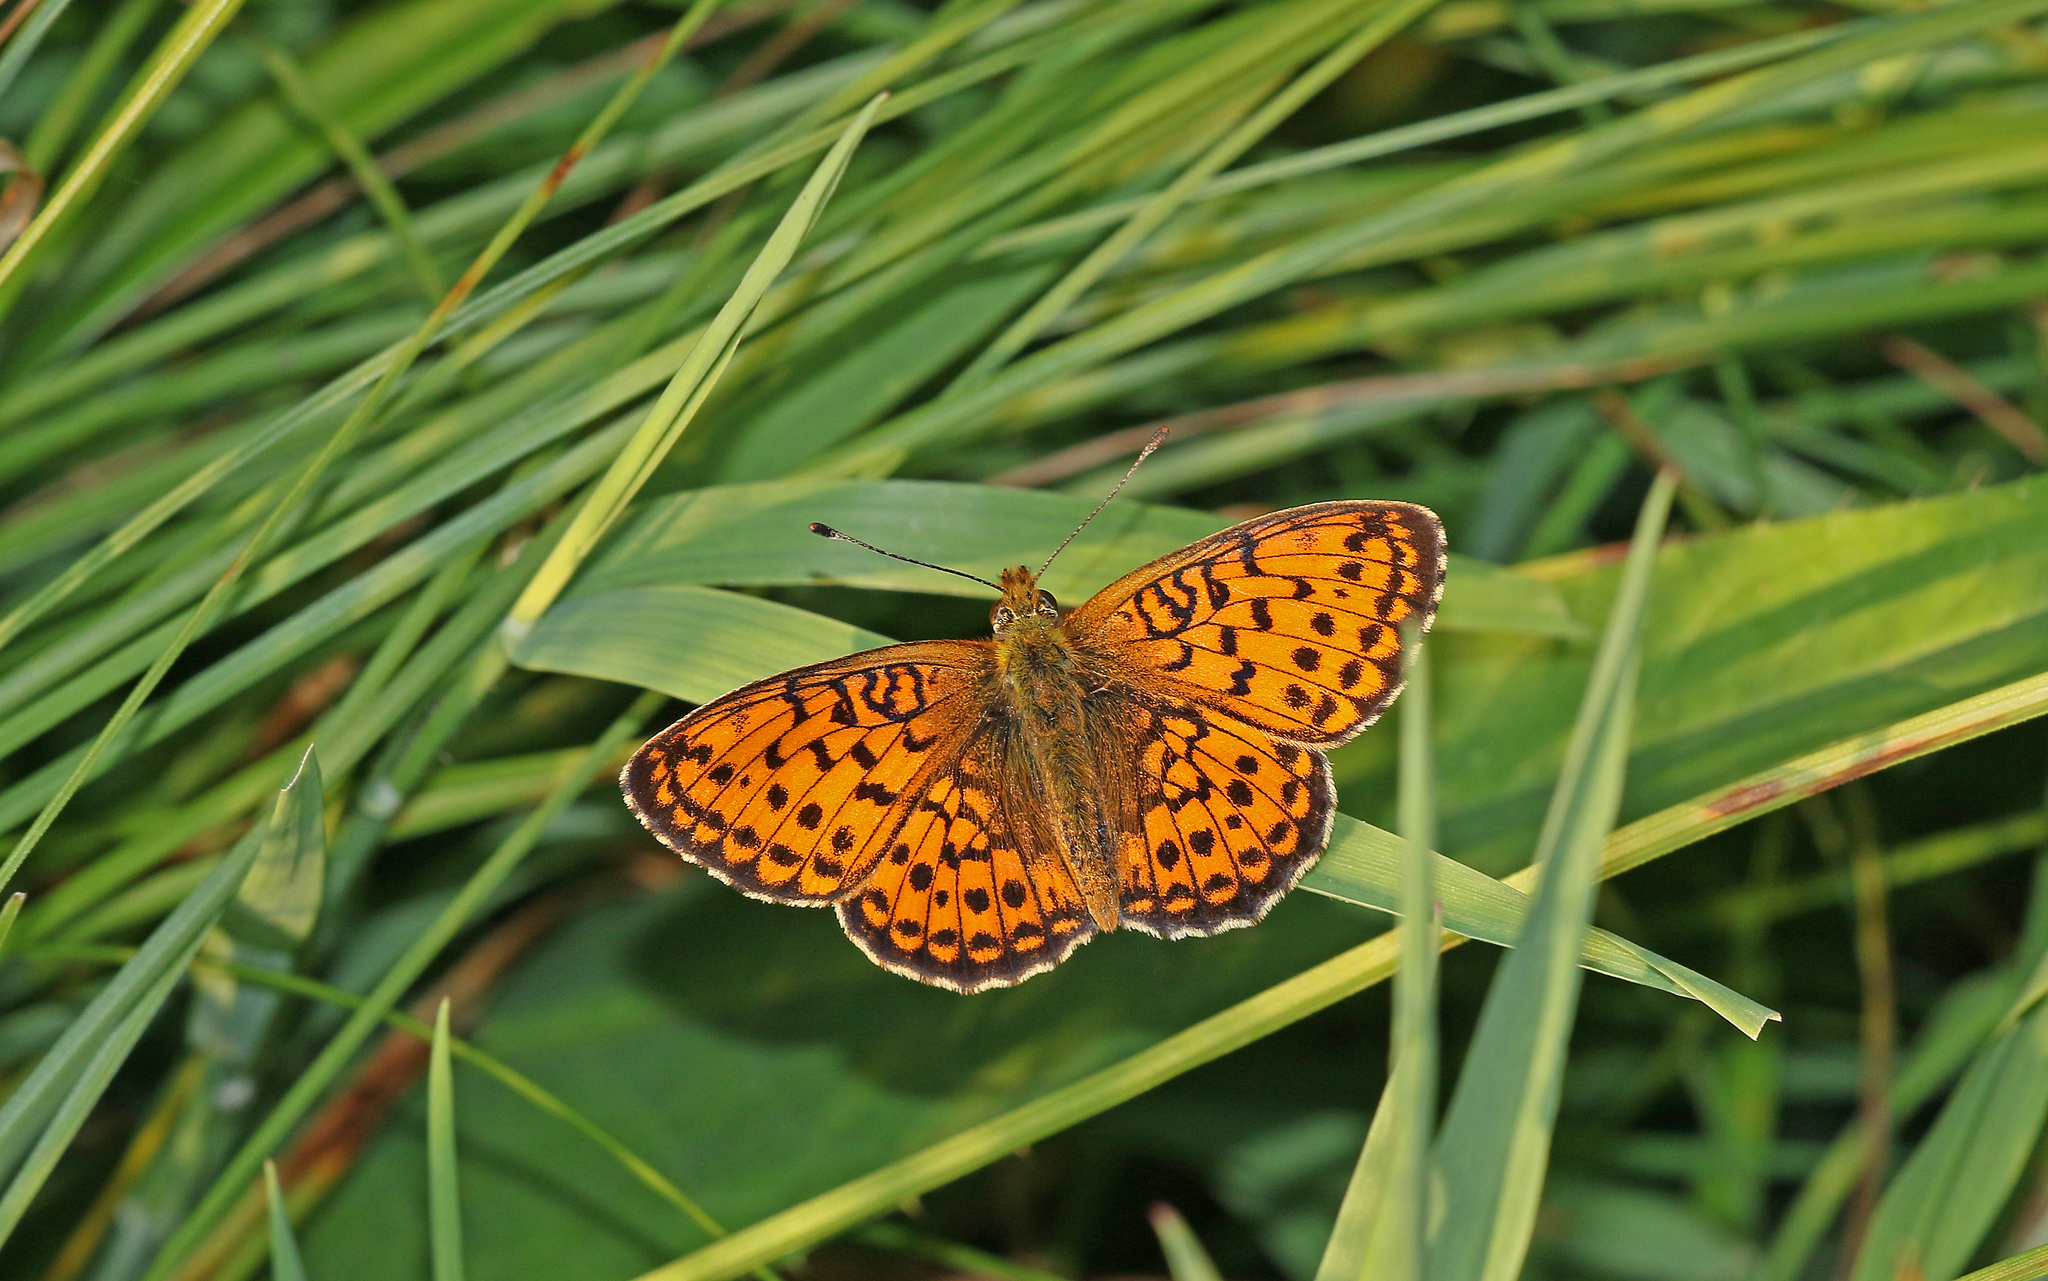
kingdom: Animalia
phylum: Arthropoda
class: Insecta
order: Lepidoptera
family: Nymphalidae
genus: Brenthis
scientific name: Brenthis ino
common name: Lesser marbled fritillary
